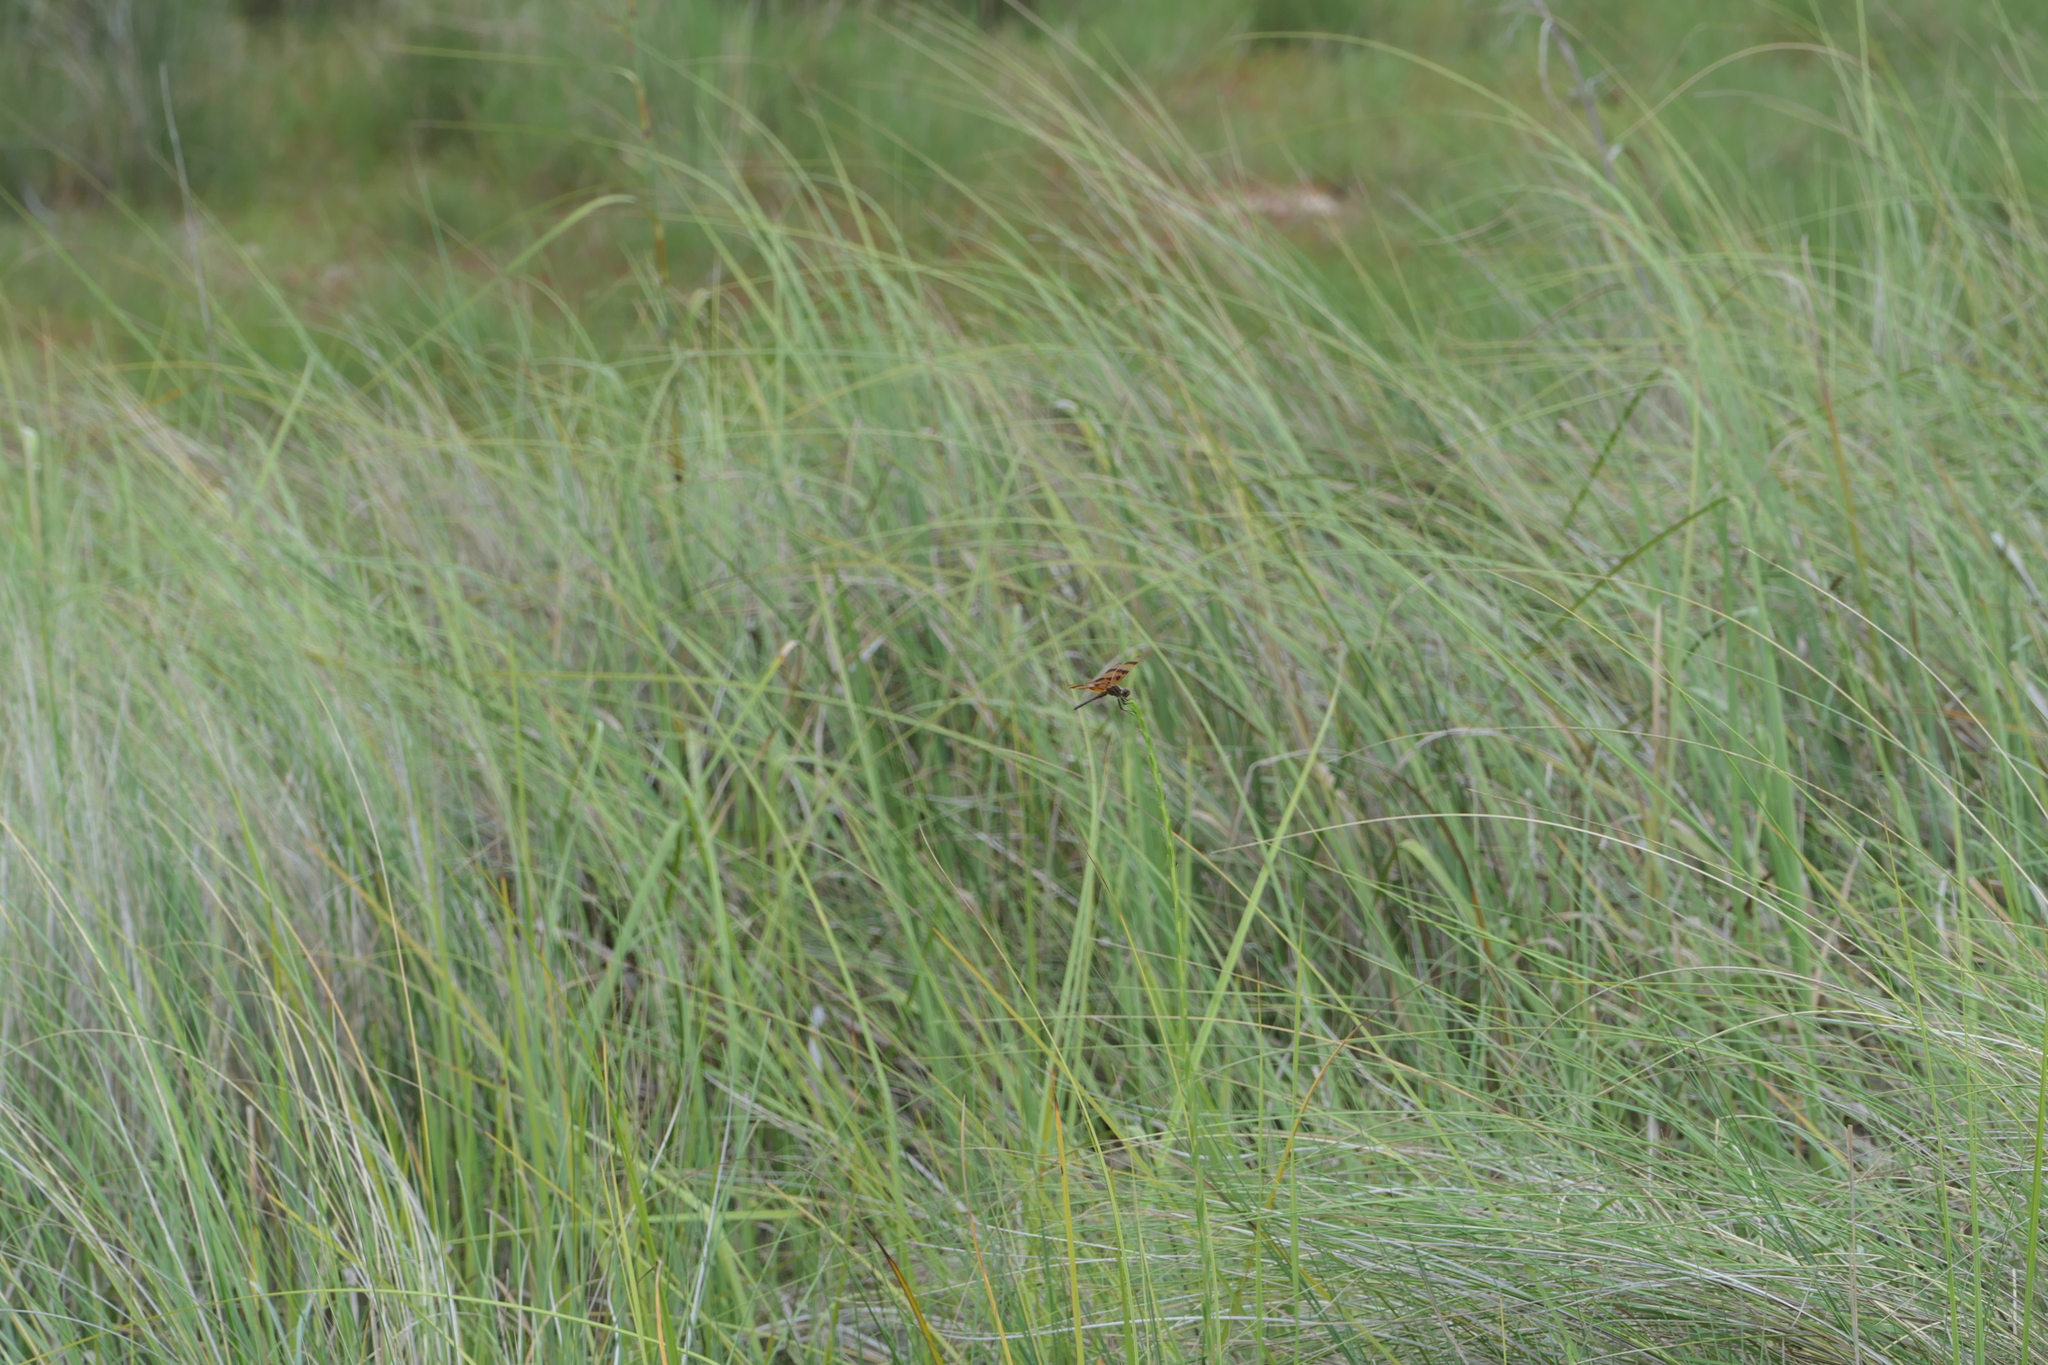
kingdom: Animalia
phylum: Arthropoda
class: Insecta
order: Odonata
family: Libellulidae
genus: Celithemis
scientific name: Celithemis eponina
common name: Halloween pennant
